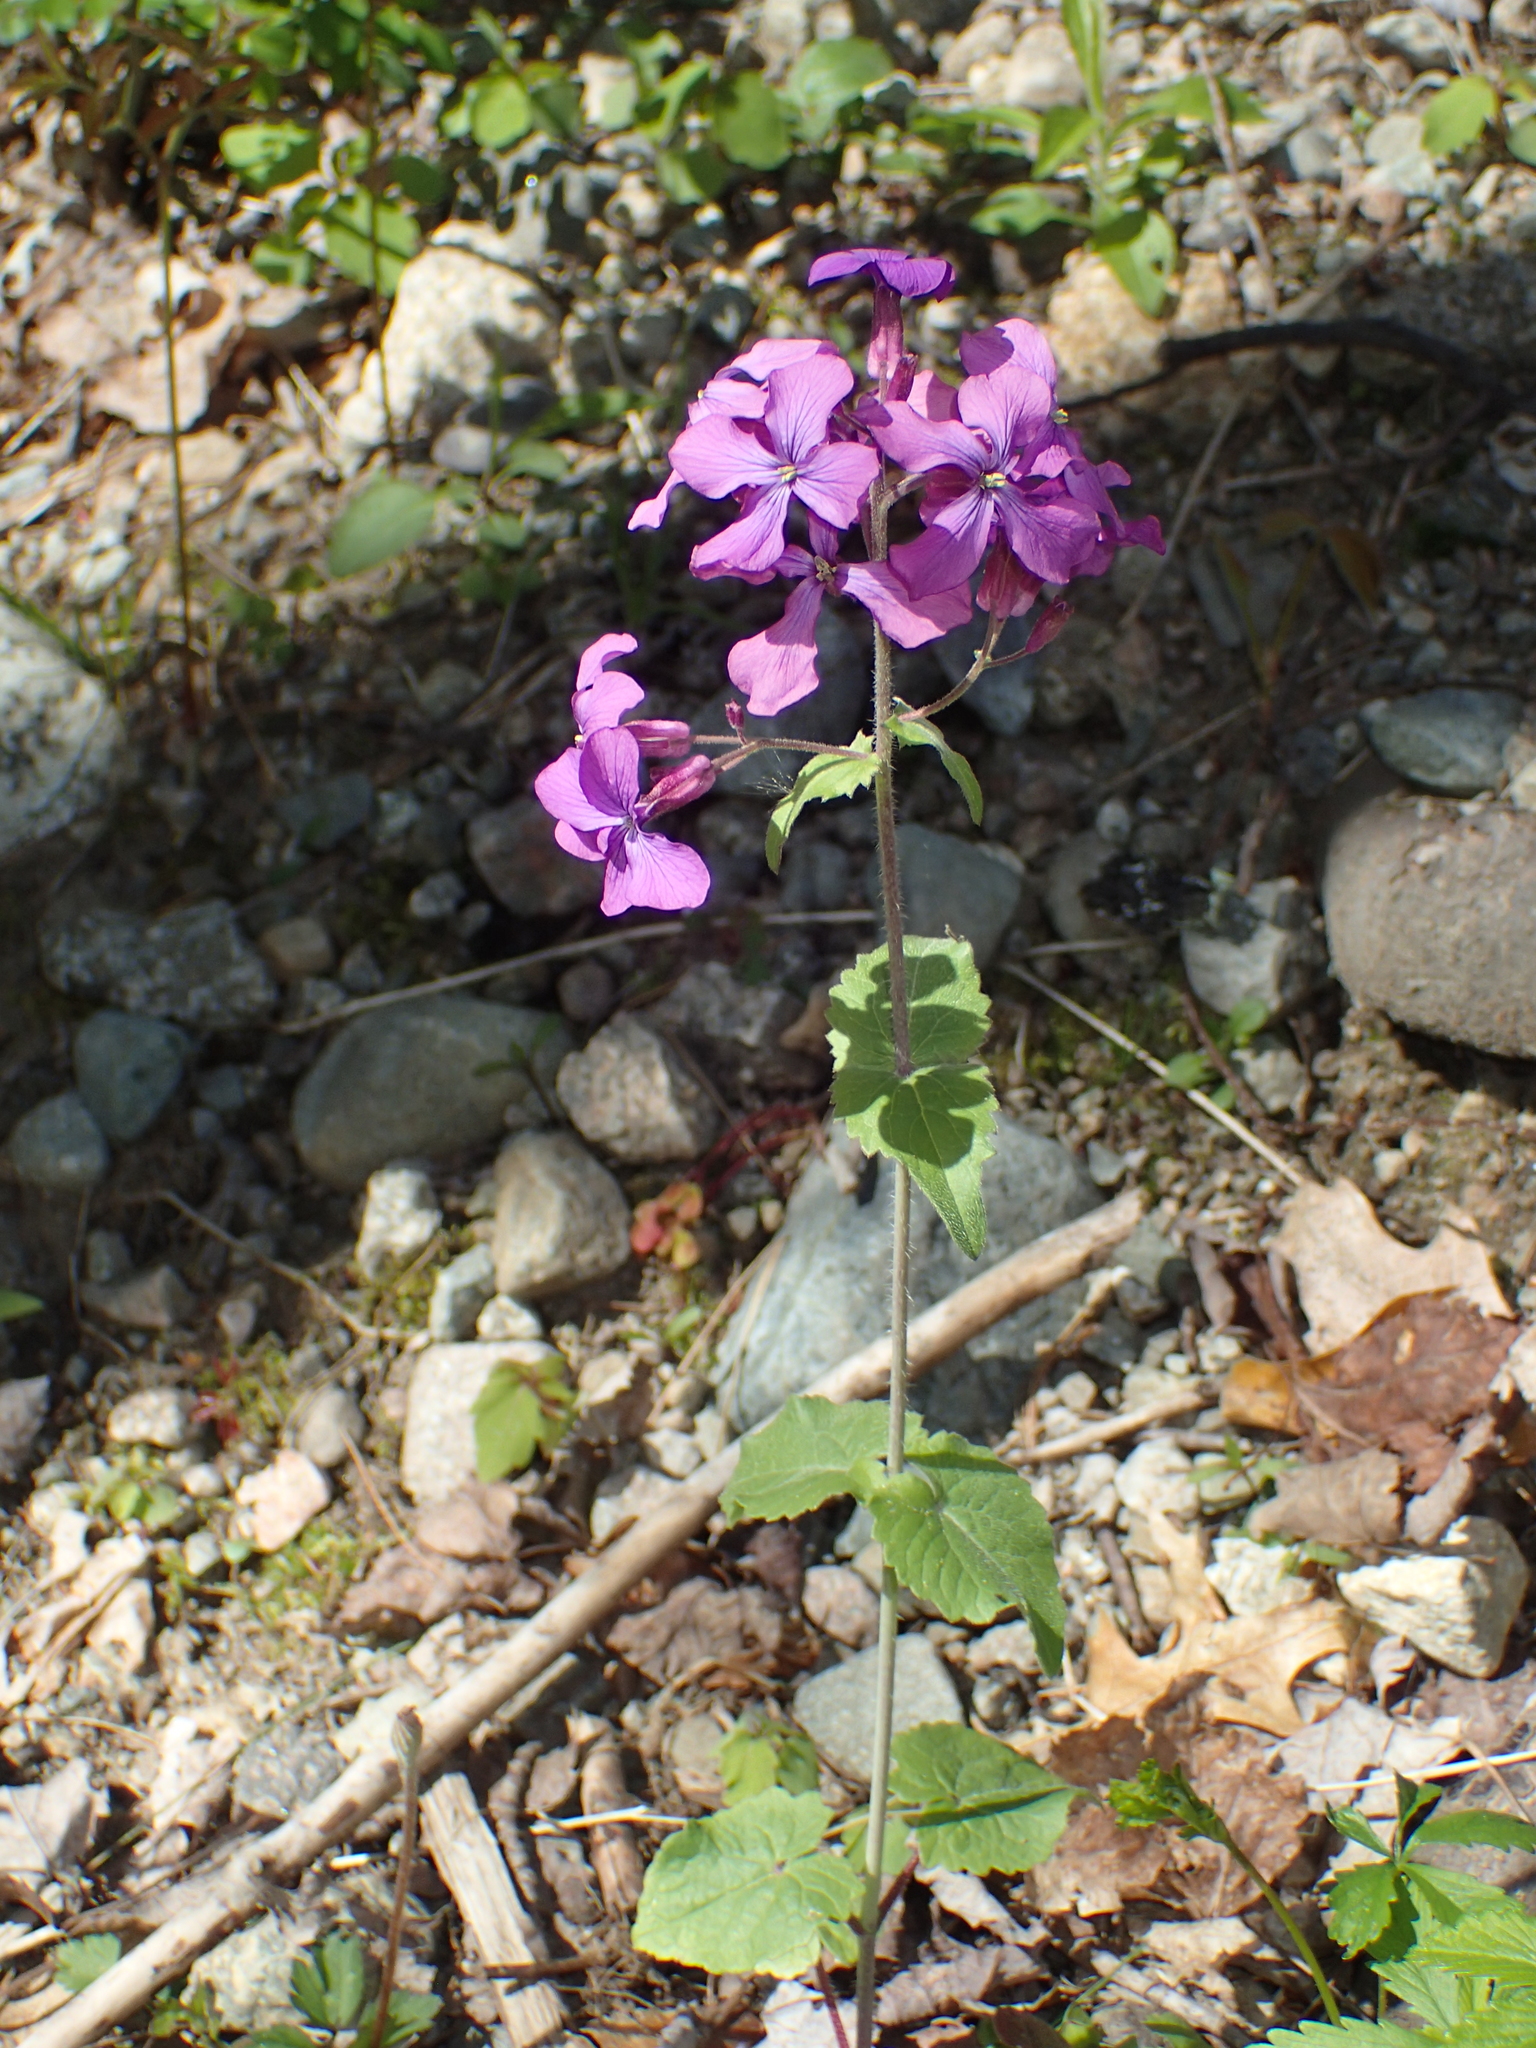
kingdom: Plantae
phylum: Tracheophyta
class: Magnoliopsida
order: Brassicales
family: Brassicaceae
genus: Lunaria
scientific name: Lunaria annua
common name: Honesty
